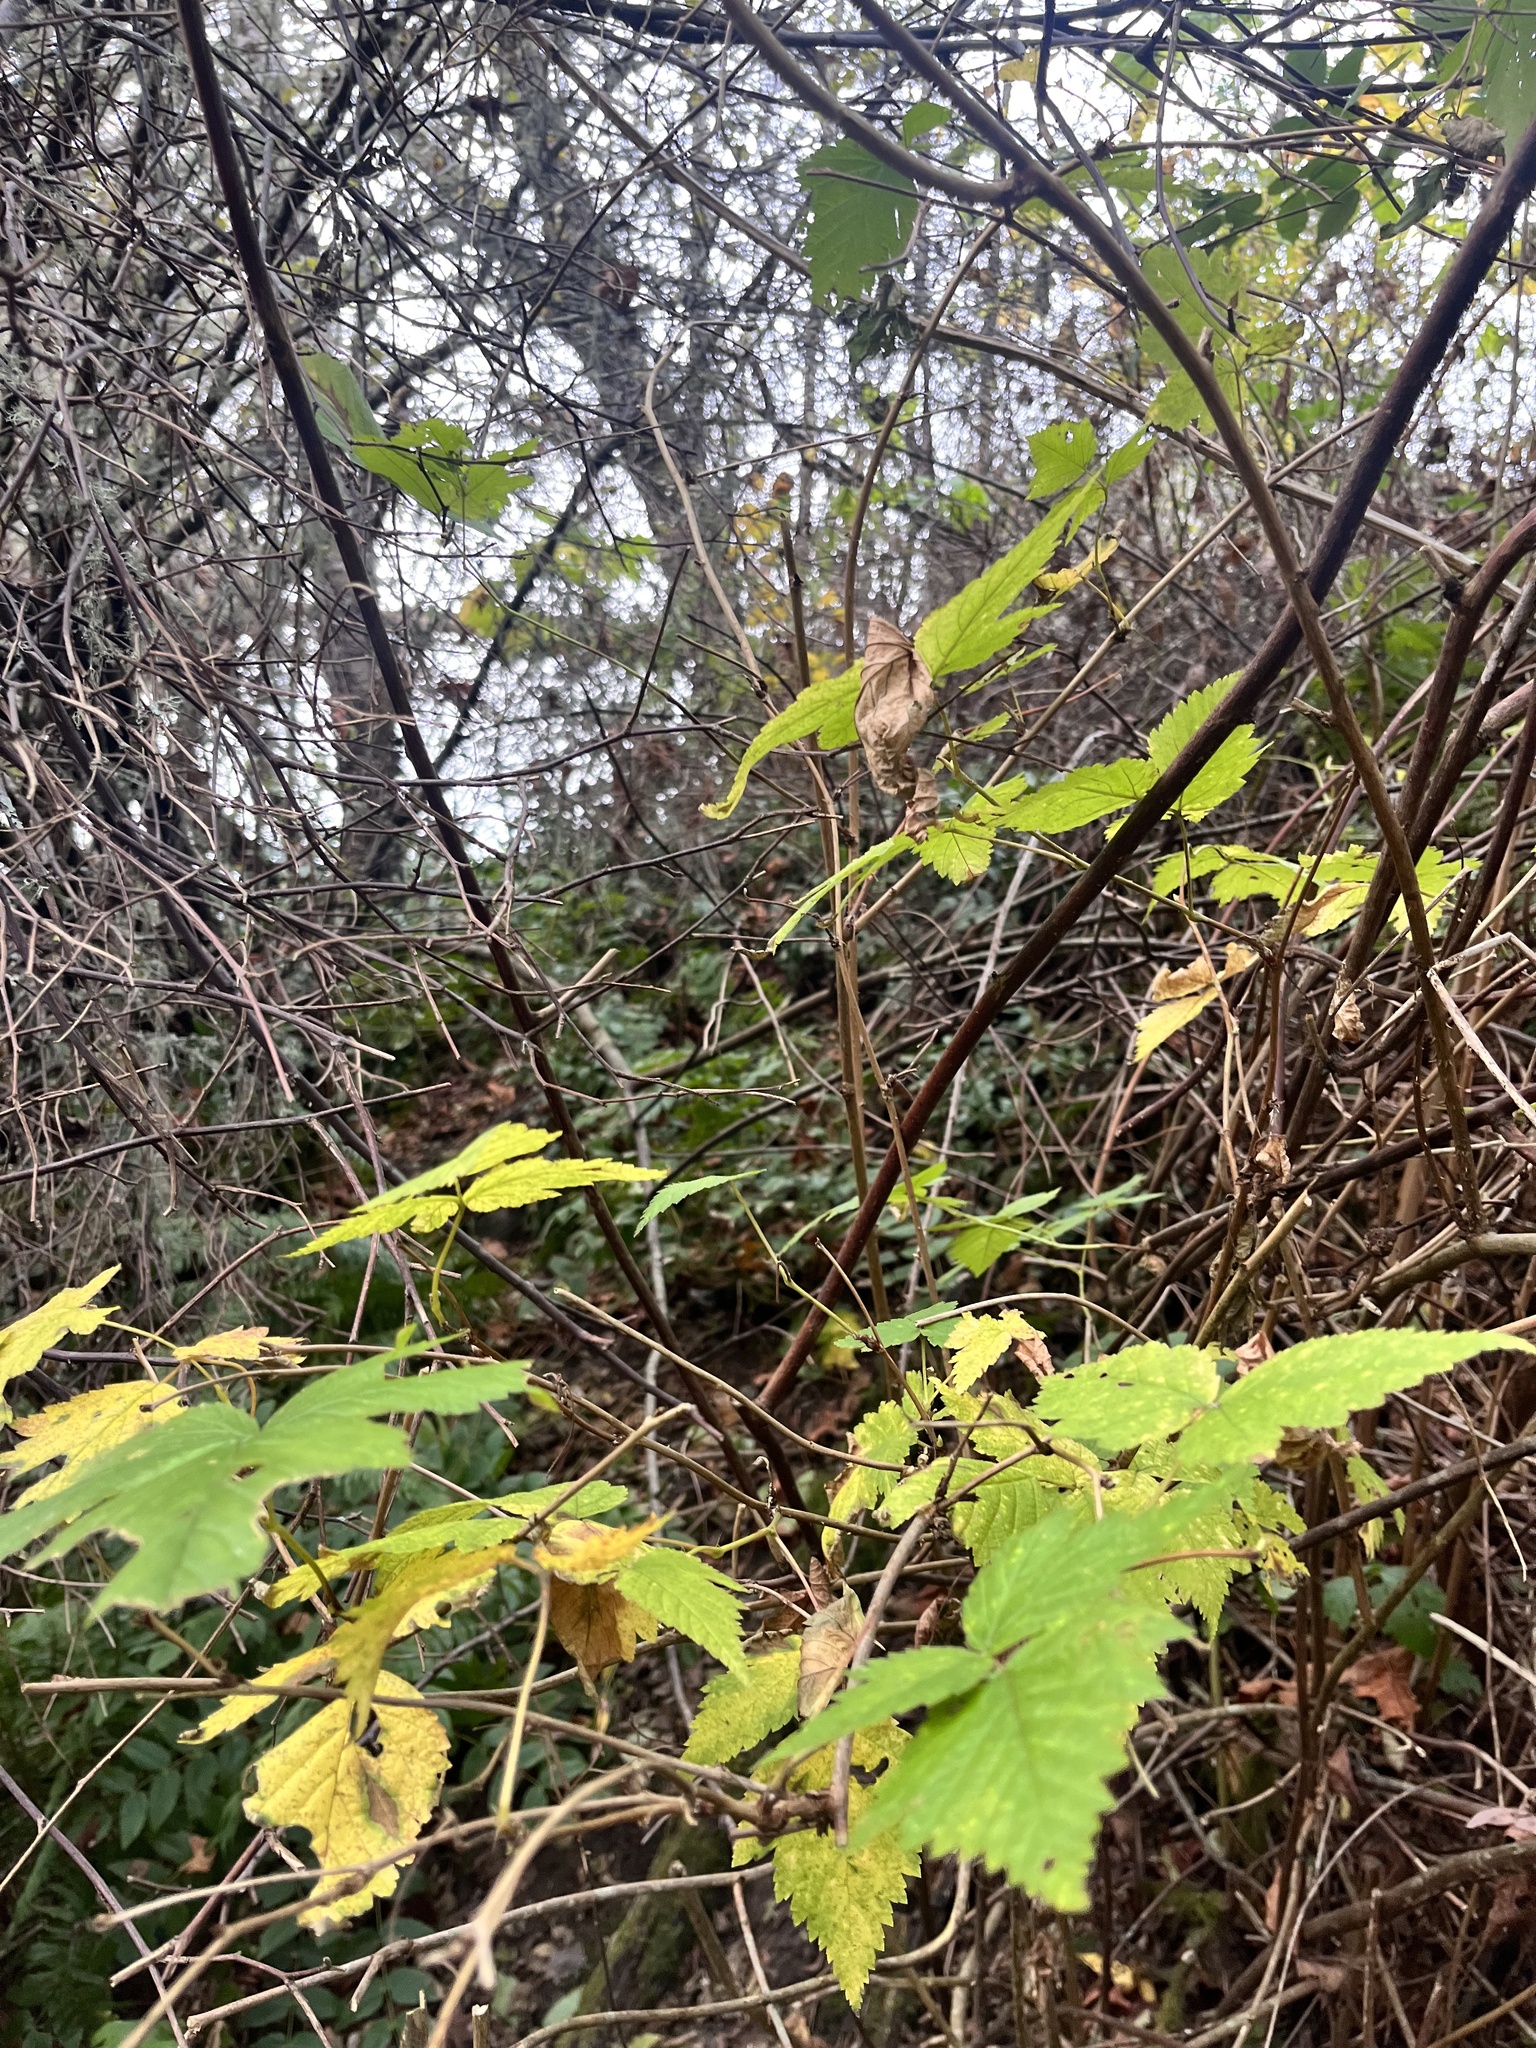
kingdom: Plantae
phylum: Tracheophyta
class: Magnoliopsida
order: Rosales
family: Rosaceae
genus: Rubus
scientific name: Rubus spectabilis
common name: Salmonberry
